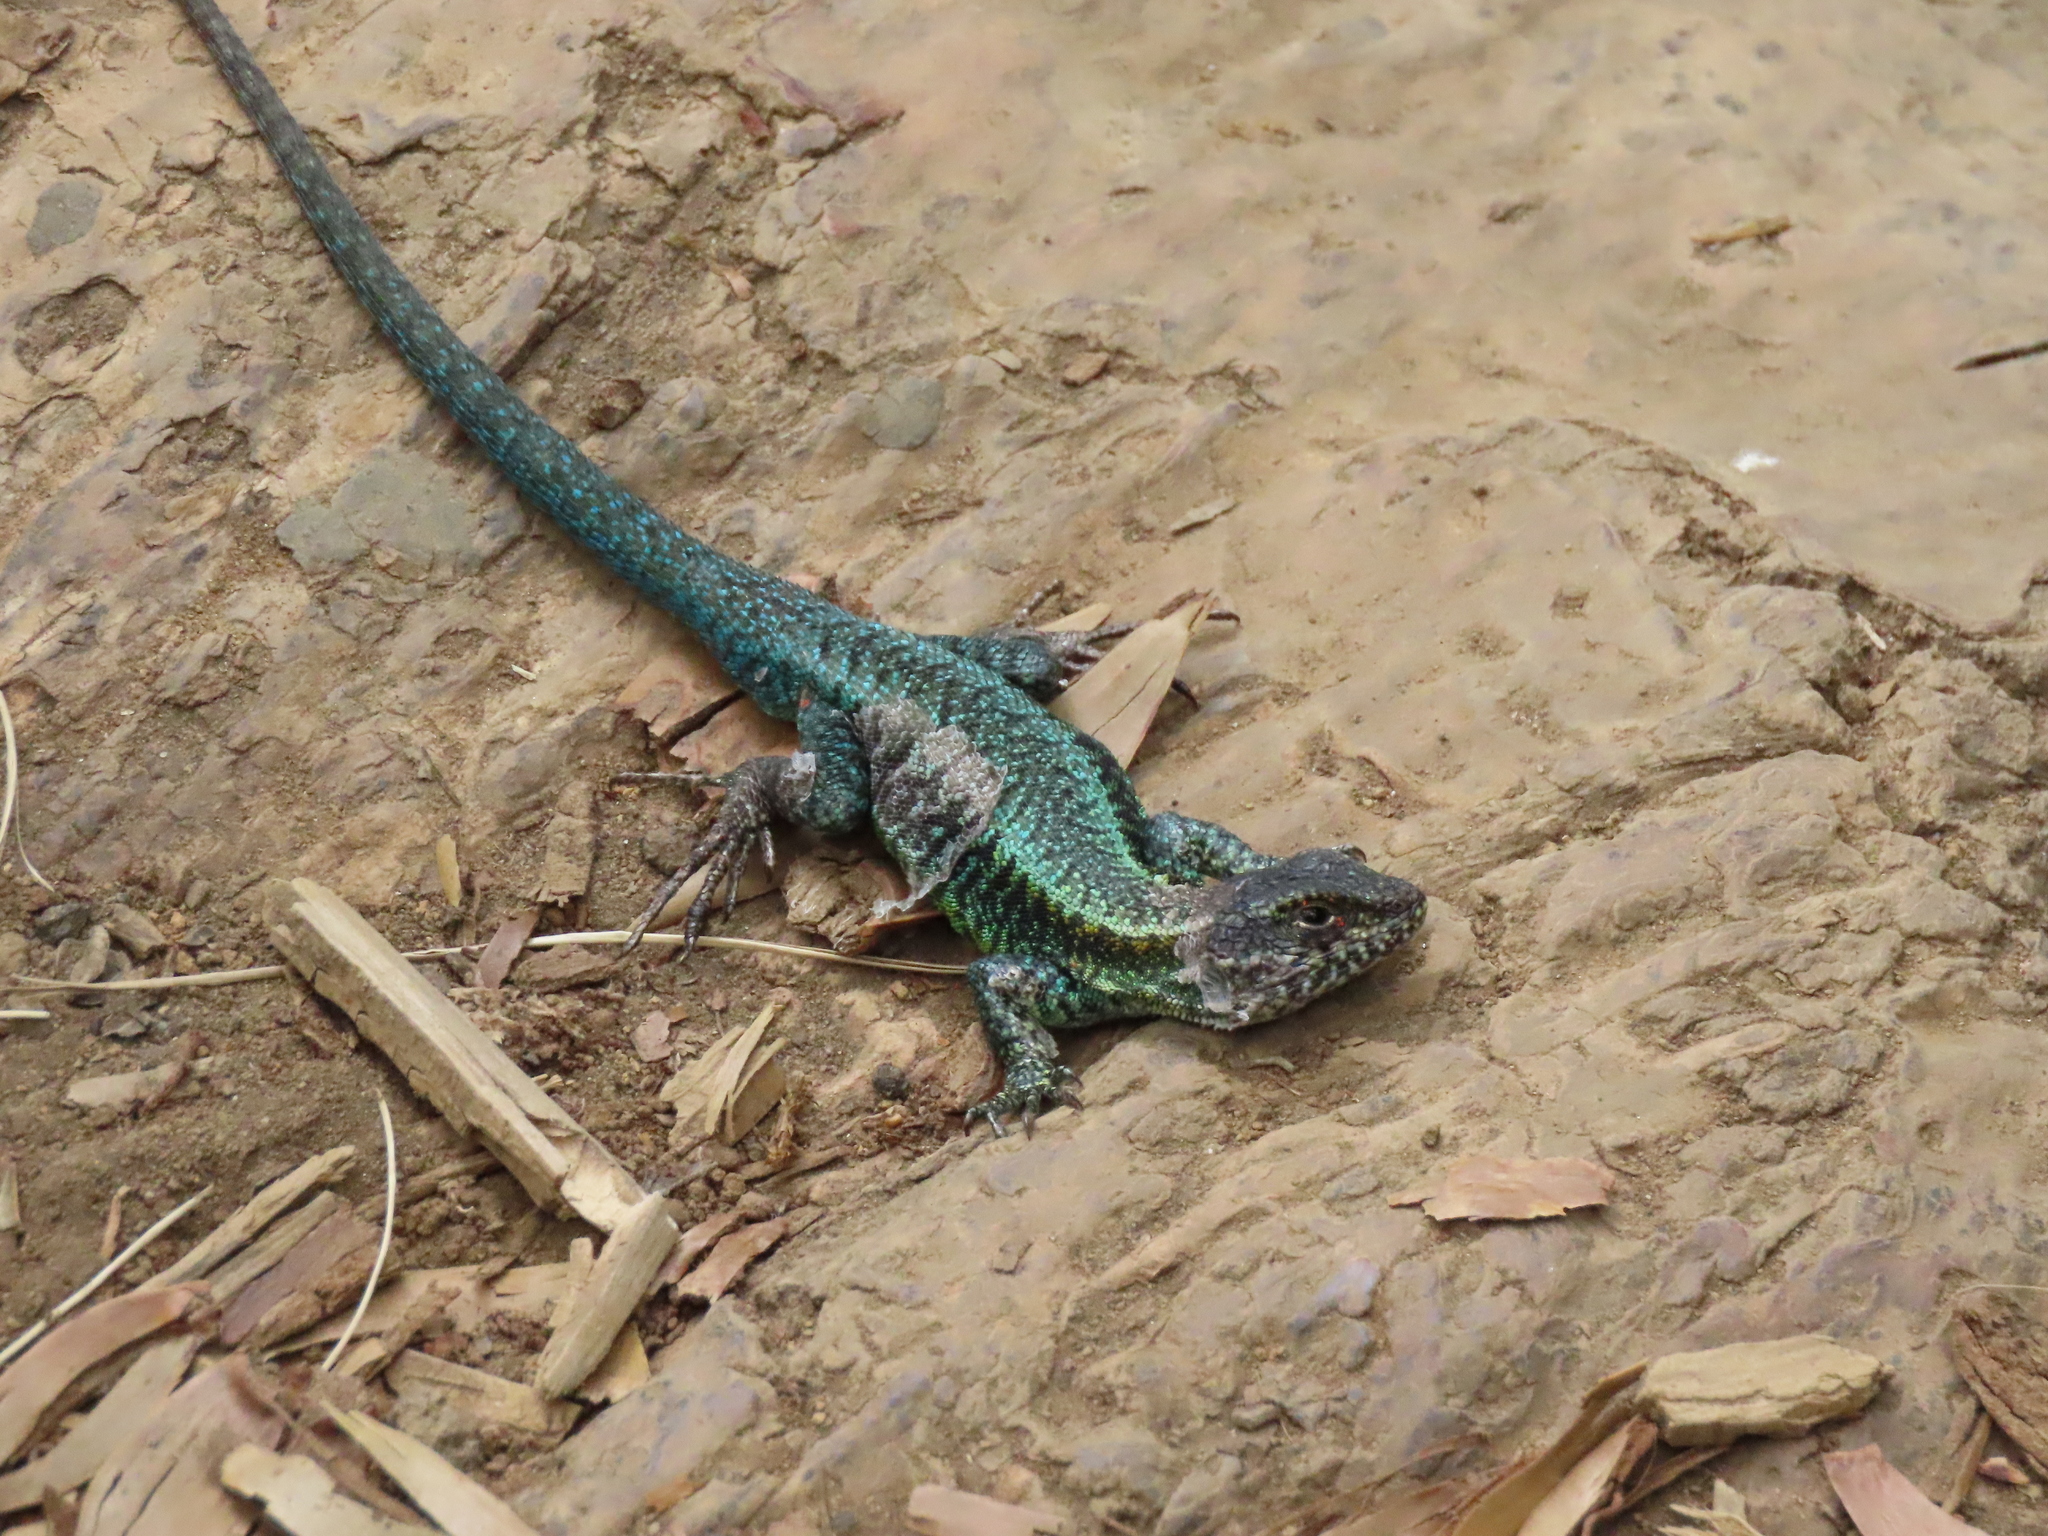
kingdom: Animalia
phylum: Chordata
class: Squamata
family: Liolaemidae
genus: Liolaemus
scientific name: Liolaemus pictus
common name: Painted tree iguana
